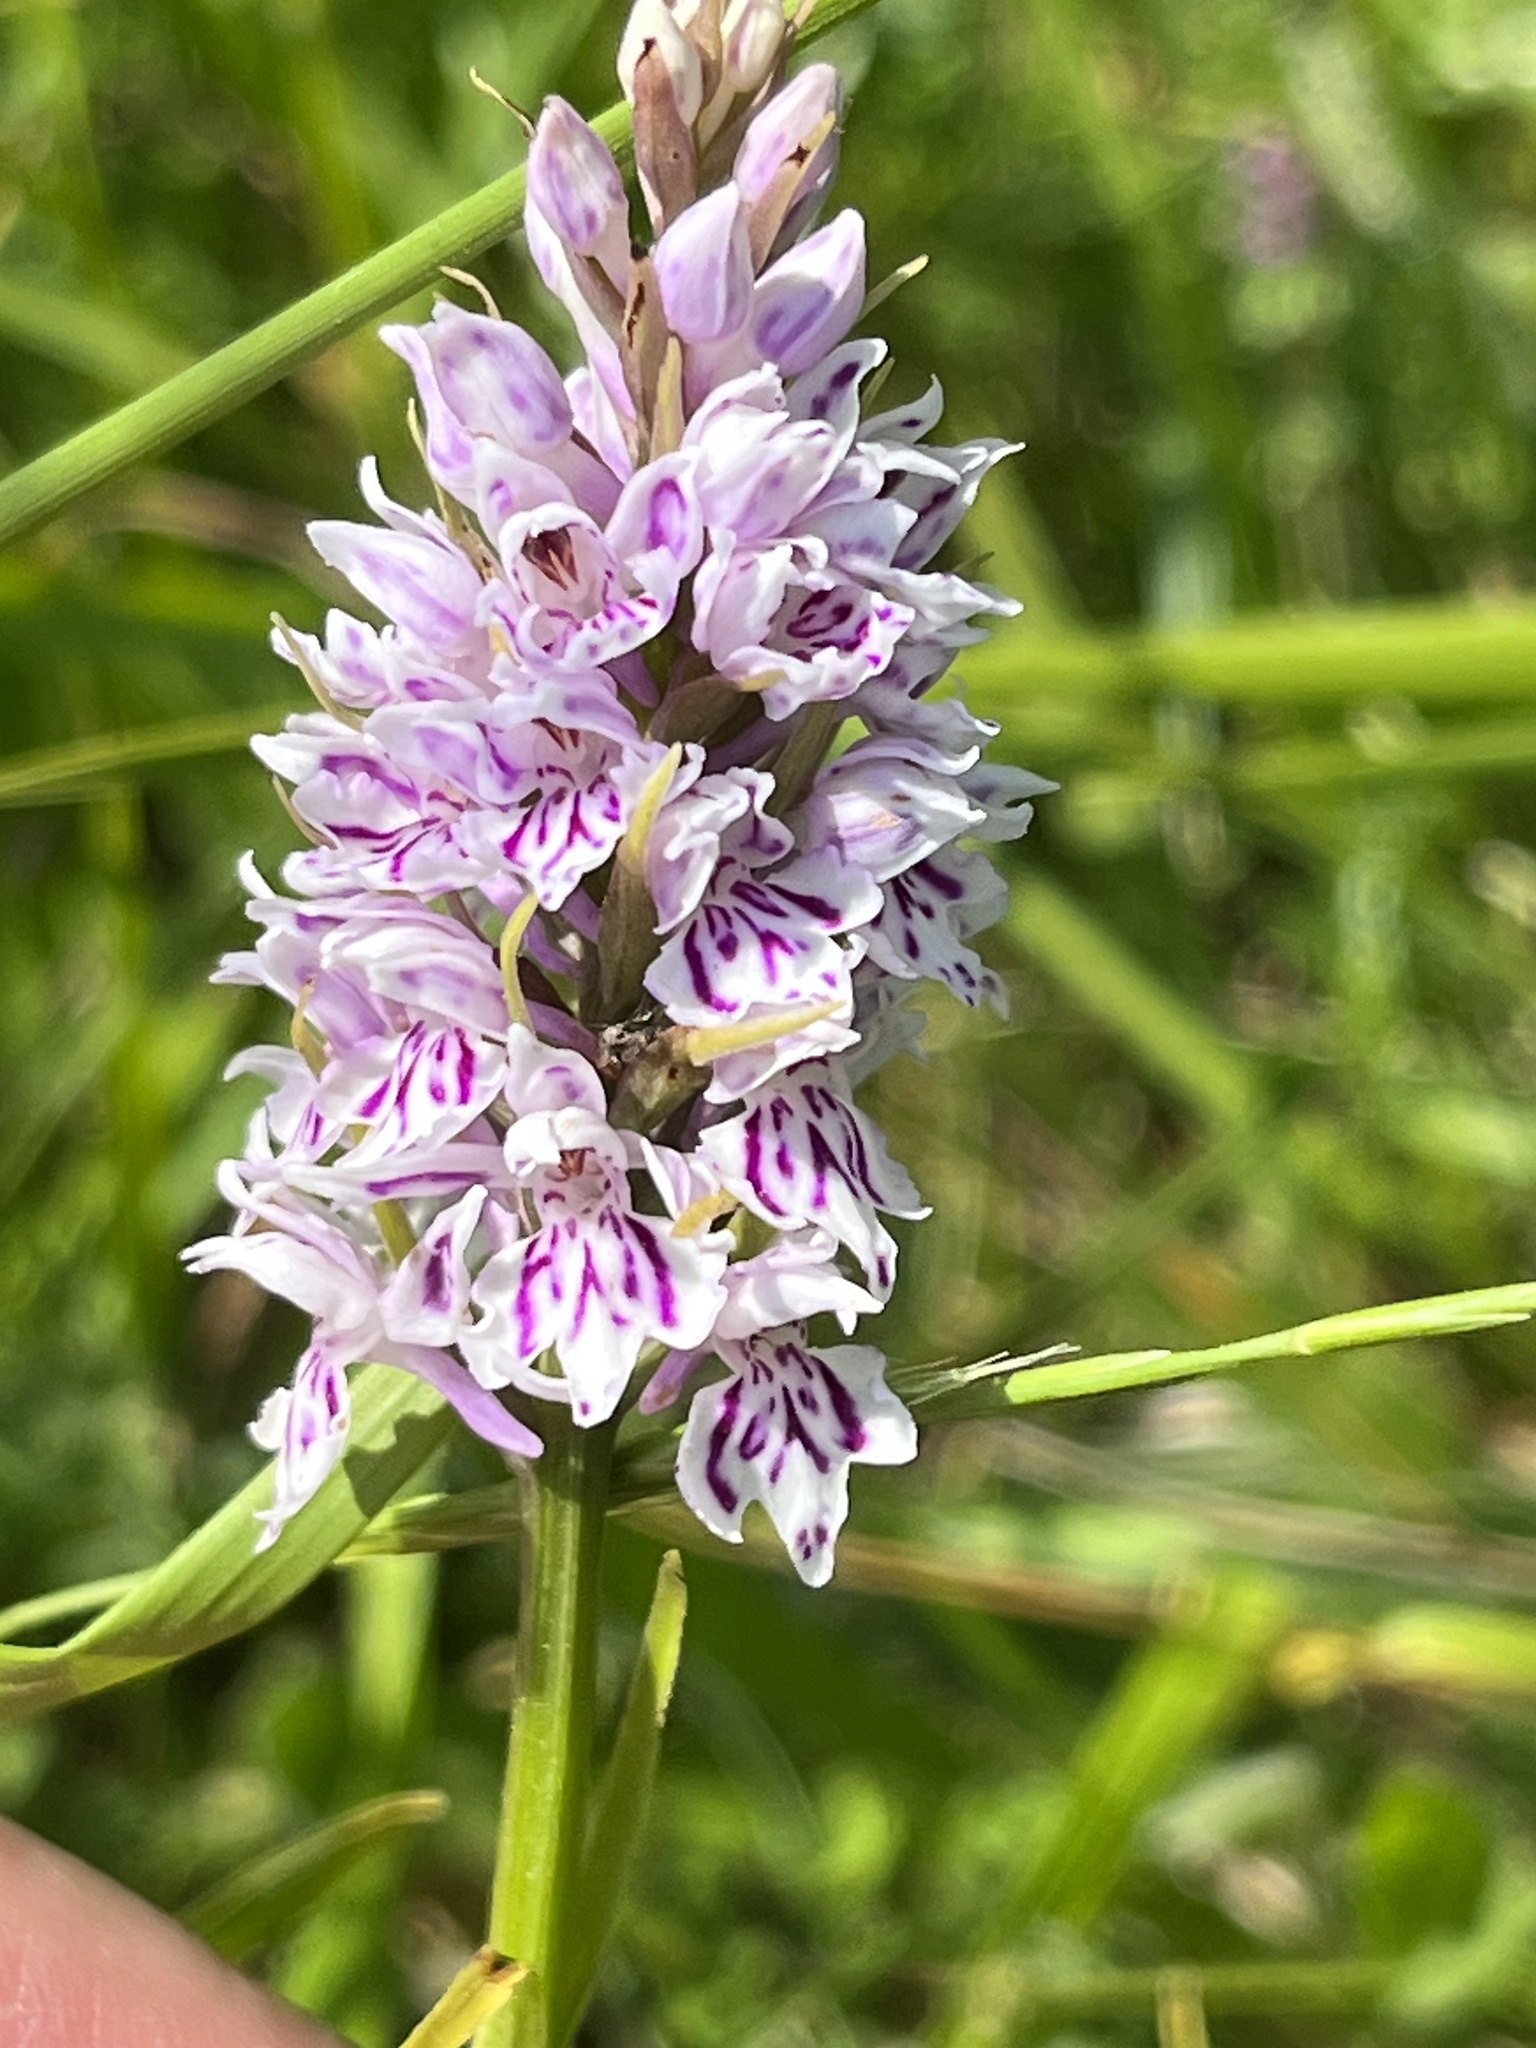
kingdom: Plantae
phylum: Tracheophyta
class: Liliopsida
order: Asparagales
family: Orchidaceae
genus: Dactylorhiza
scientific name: Dactylorhiza maculata
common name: Heath spotted-orchid
